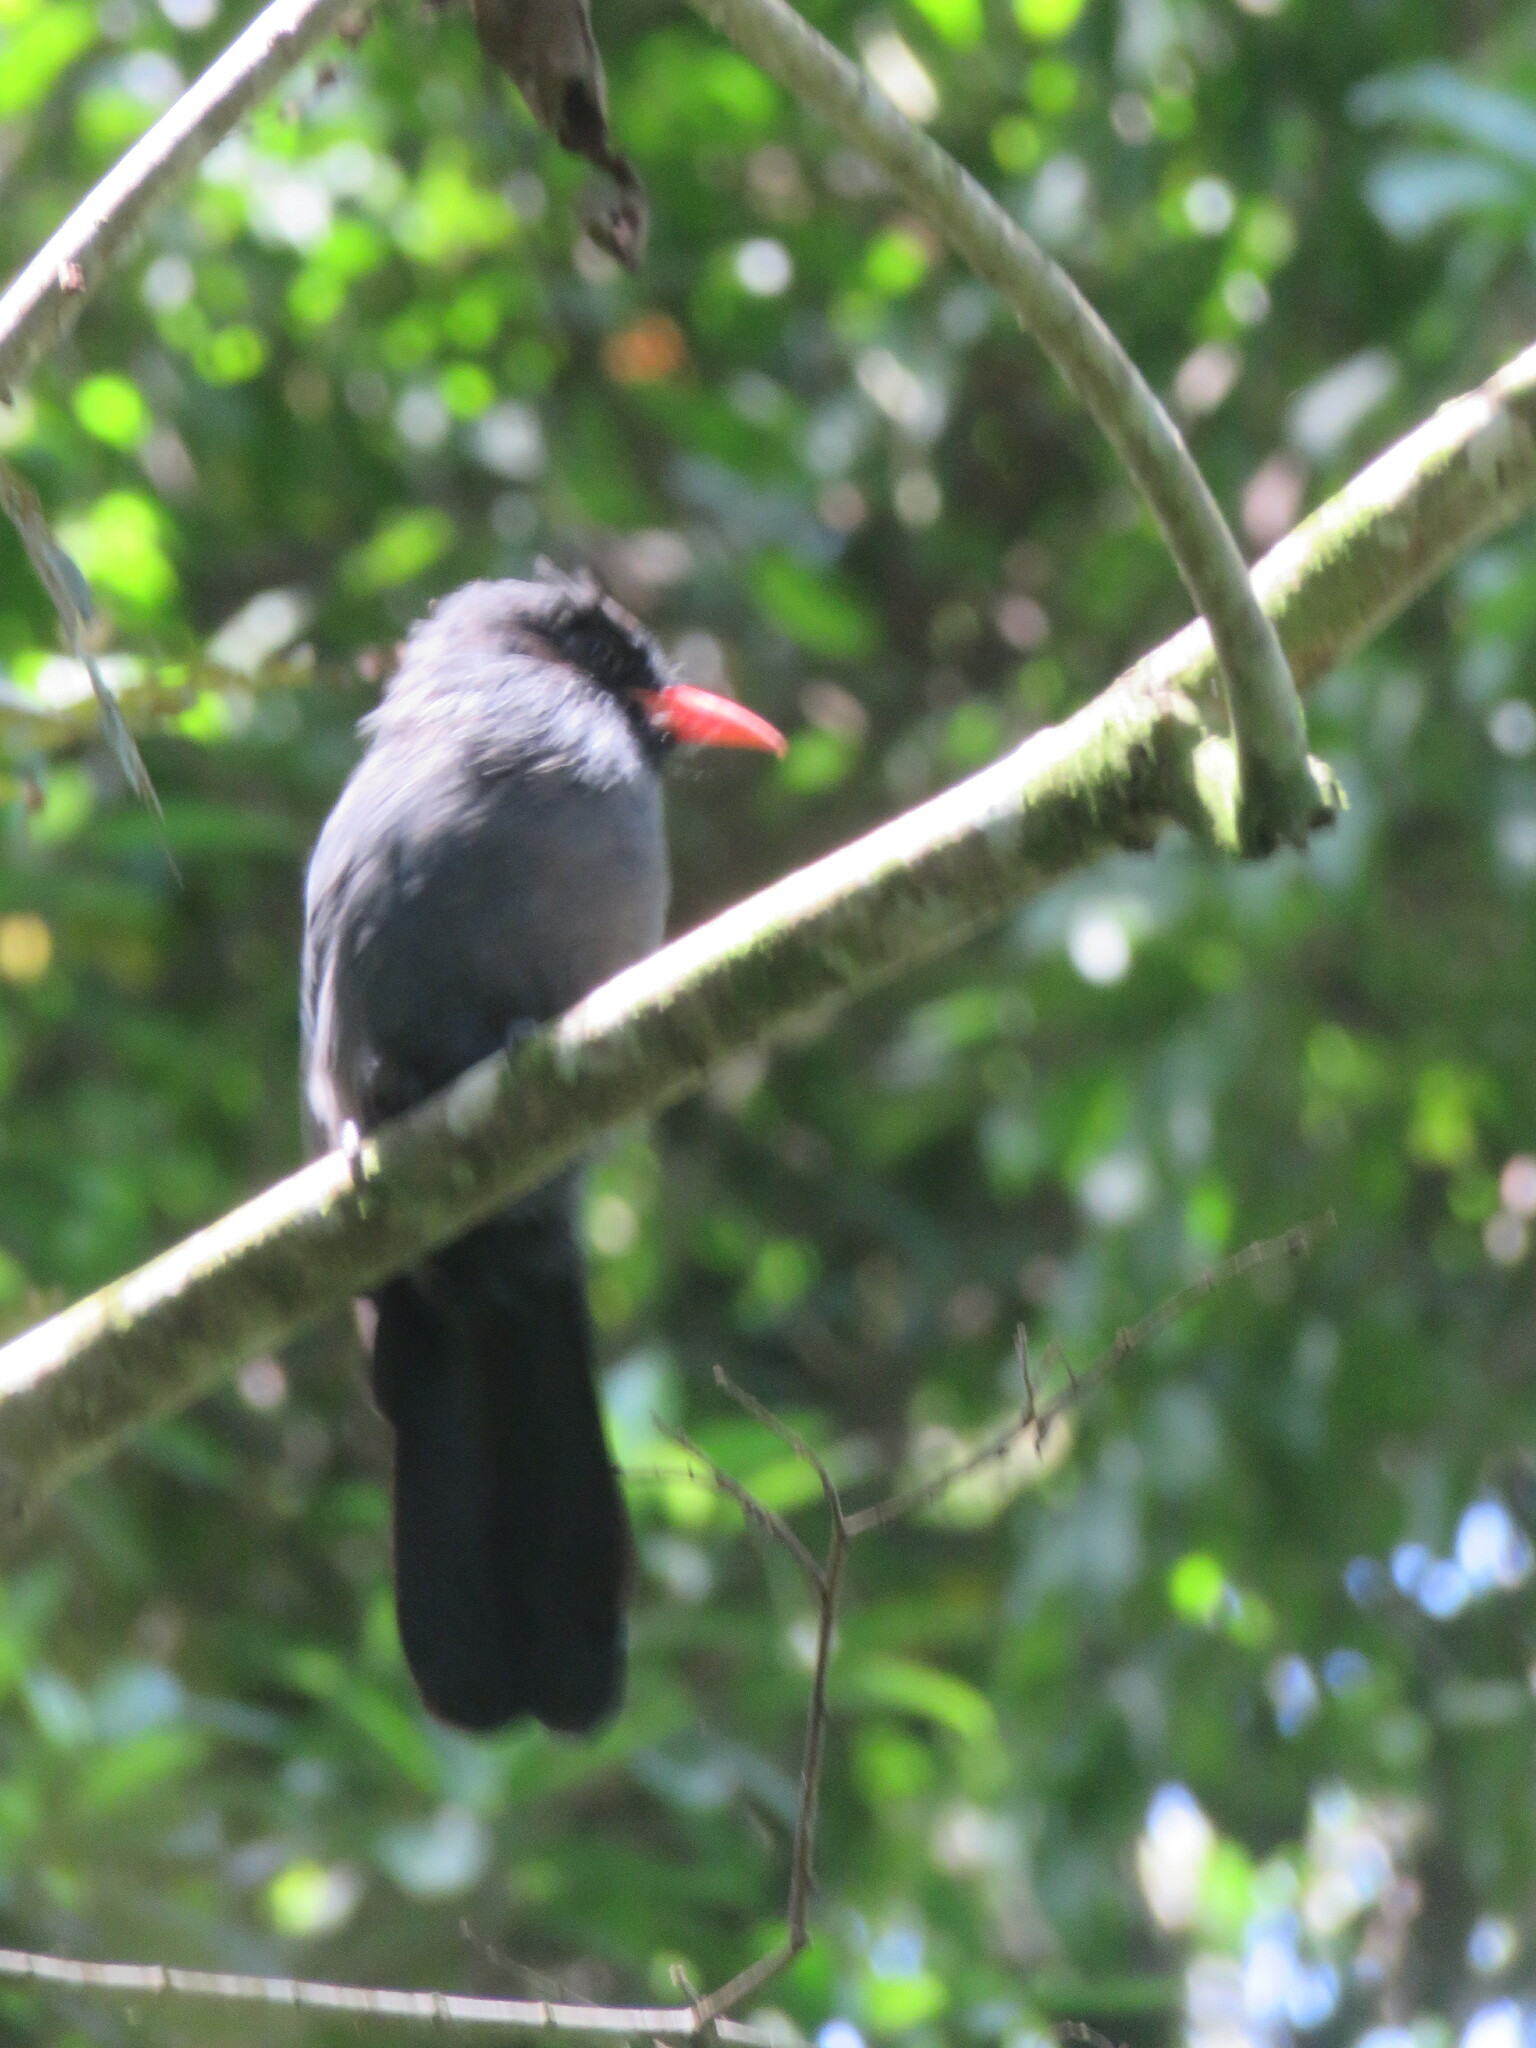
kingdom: Animalia
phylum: Chordata
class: Aves
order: Piciformes
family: Bucconidae
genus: Monasa
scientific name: Monasa nigrifrons
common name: Black-fronted nunbird
